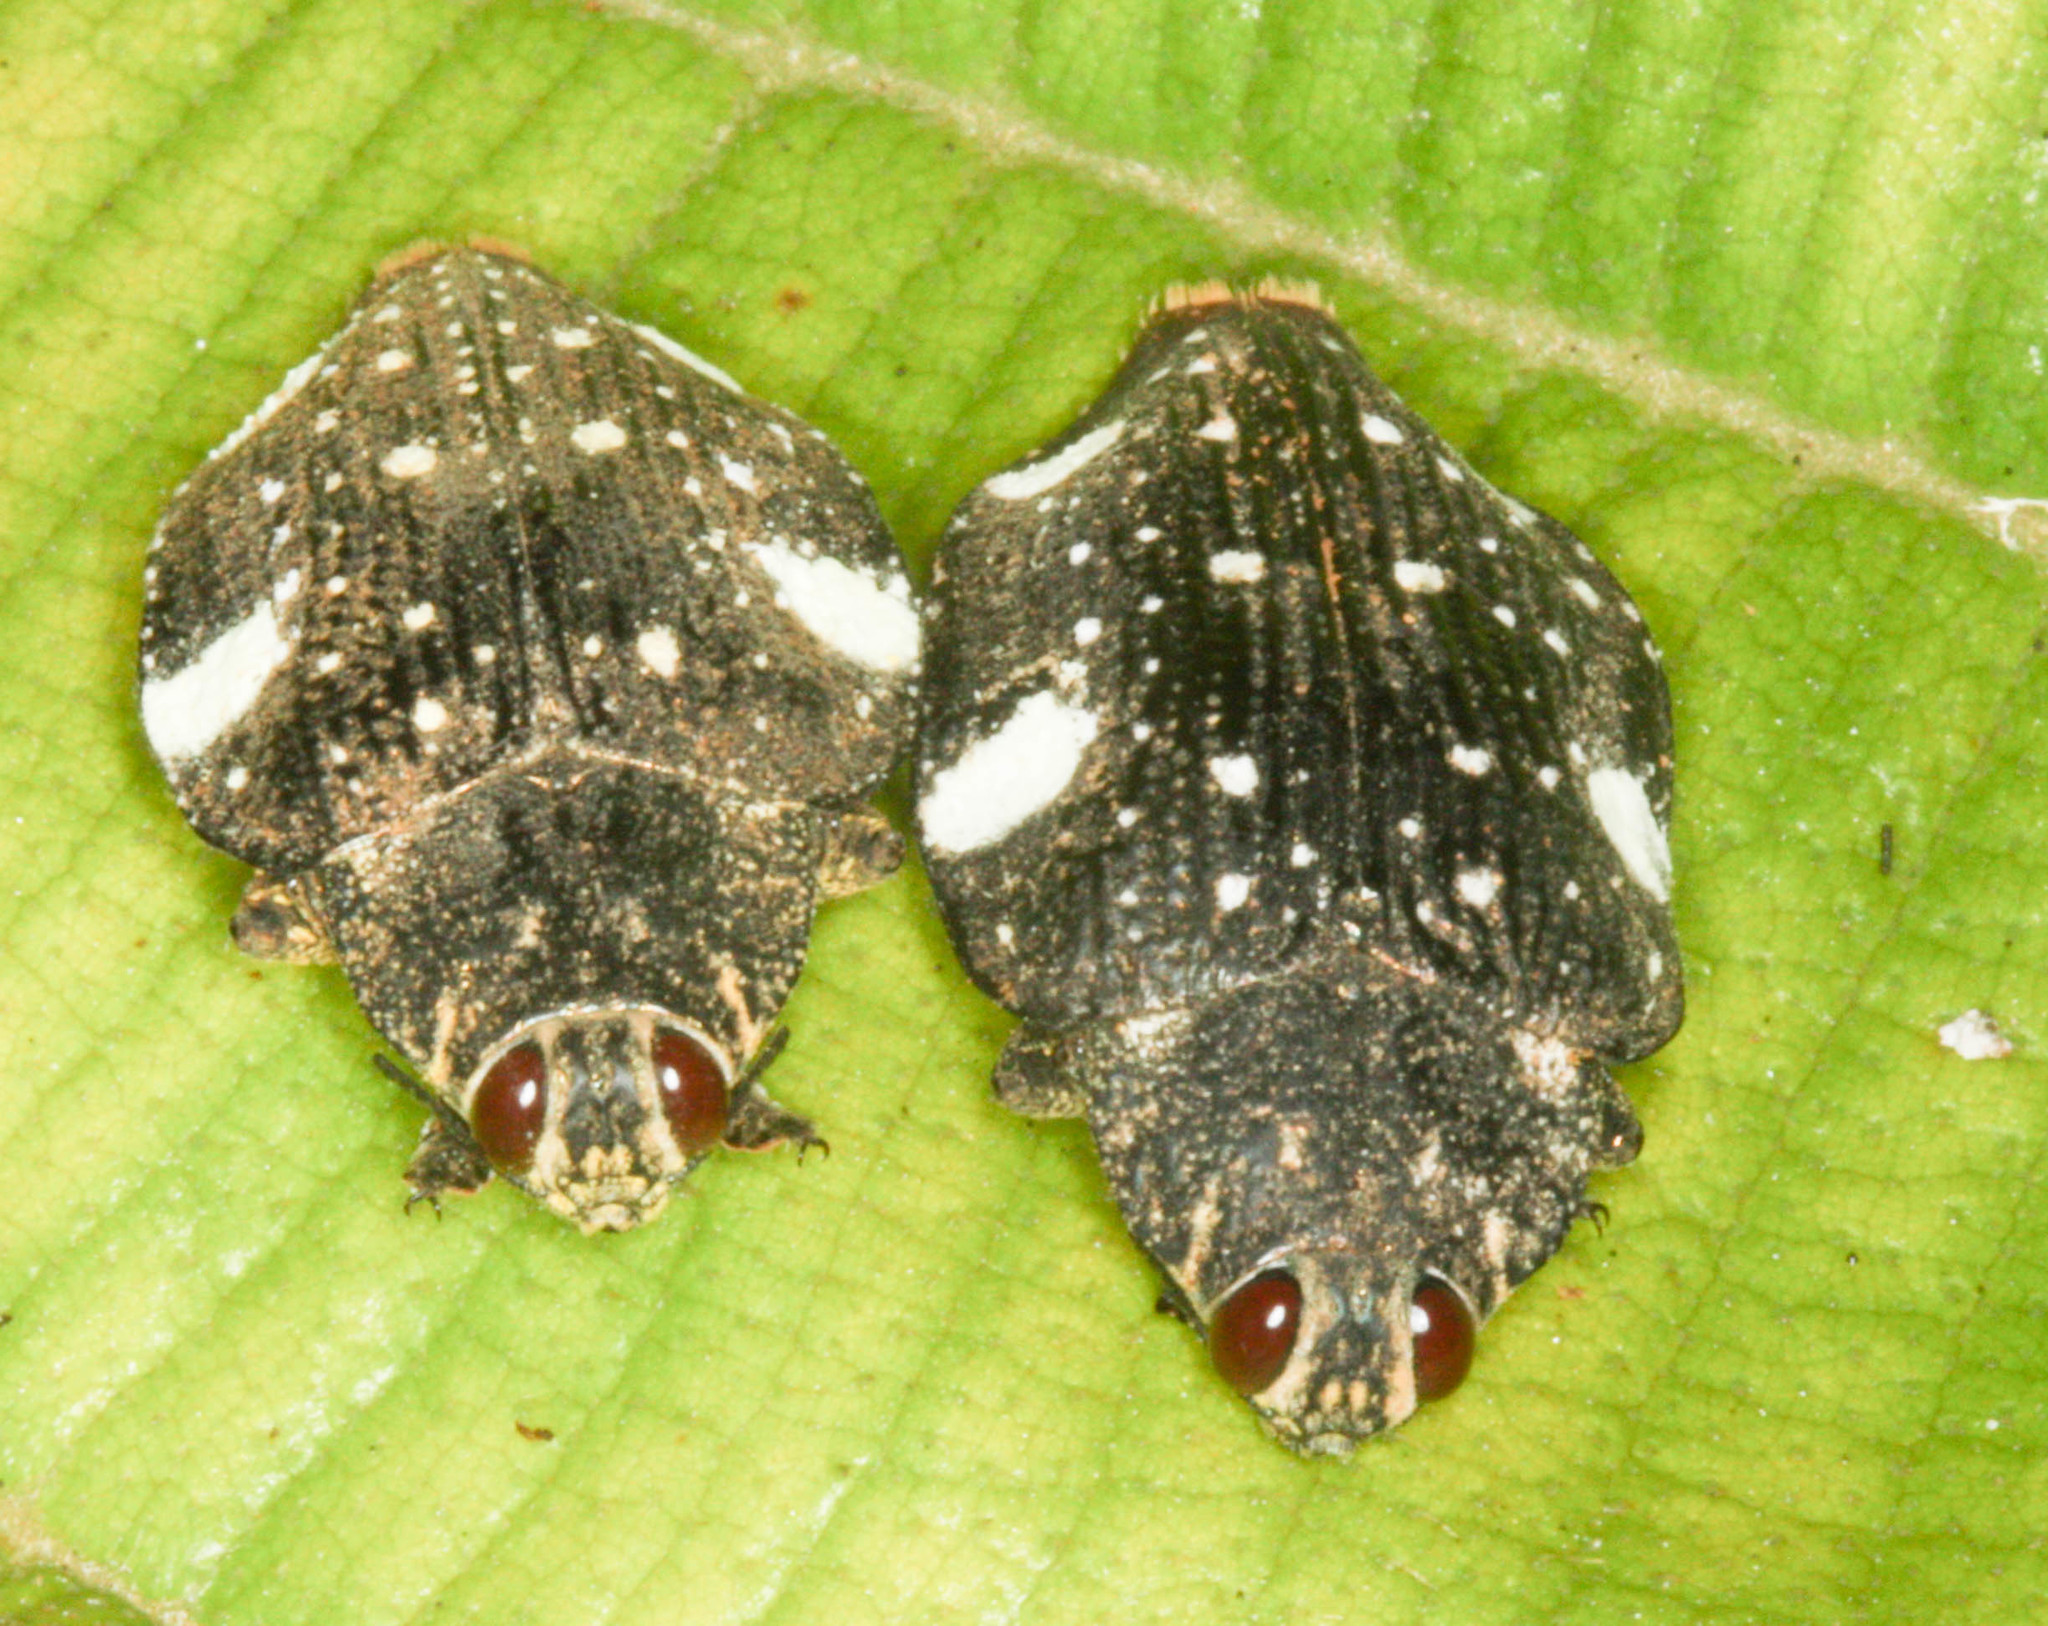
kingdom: Animalia
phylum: Arthropoda
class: Insecta
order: Coleoptera
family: Buprestidae
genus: Polybothris
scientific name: Polybothris auropicta
